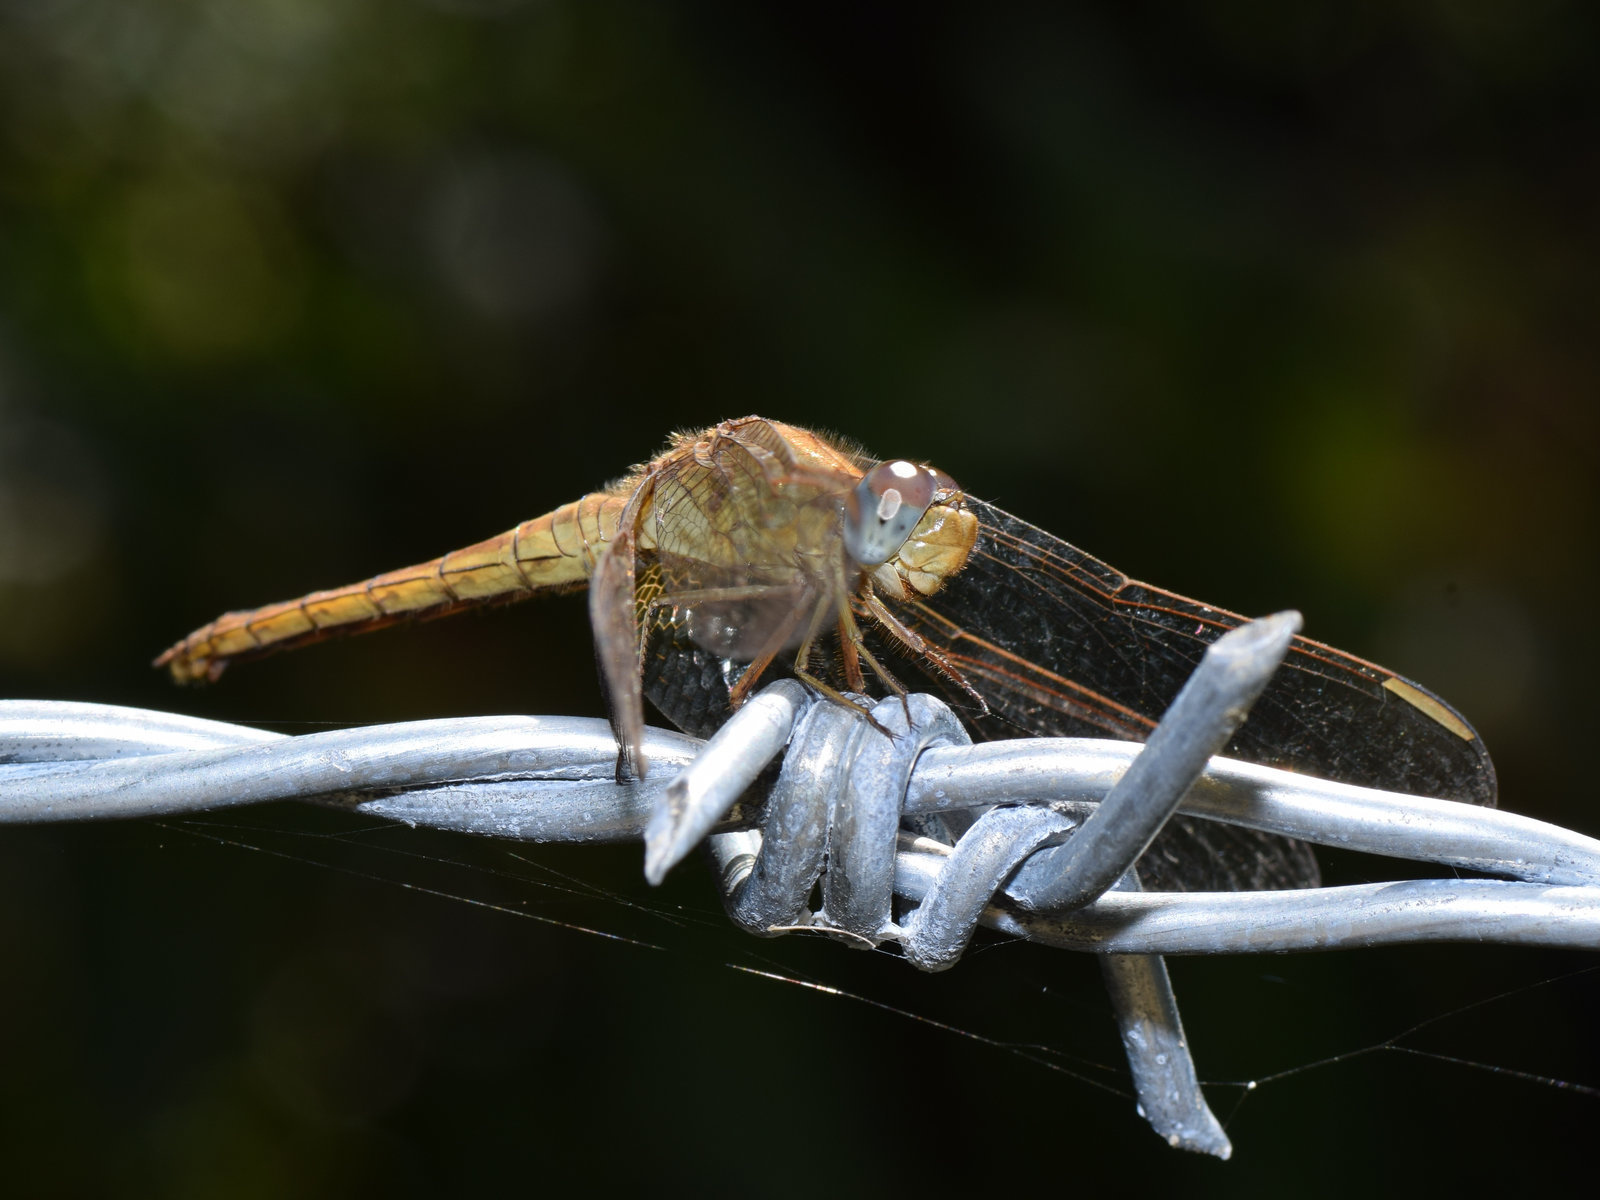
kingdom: Animalia
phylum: Arthropoda
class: Insecta
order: Odonata
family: Libellulidae
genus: Crocothemis
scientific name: Crocothemis servilia
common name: Scarlet skimmer
